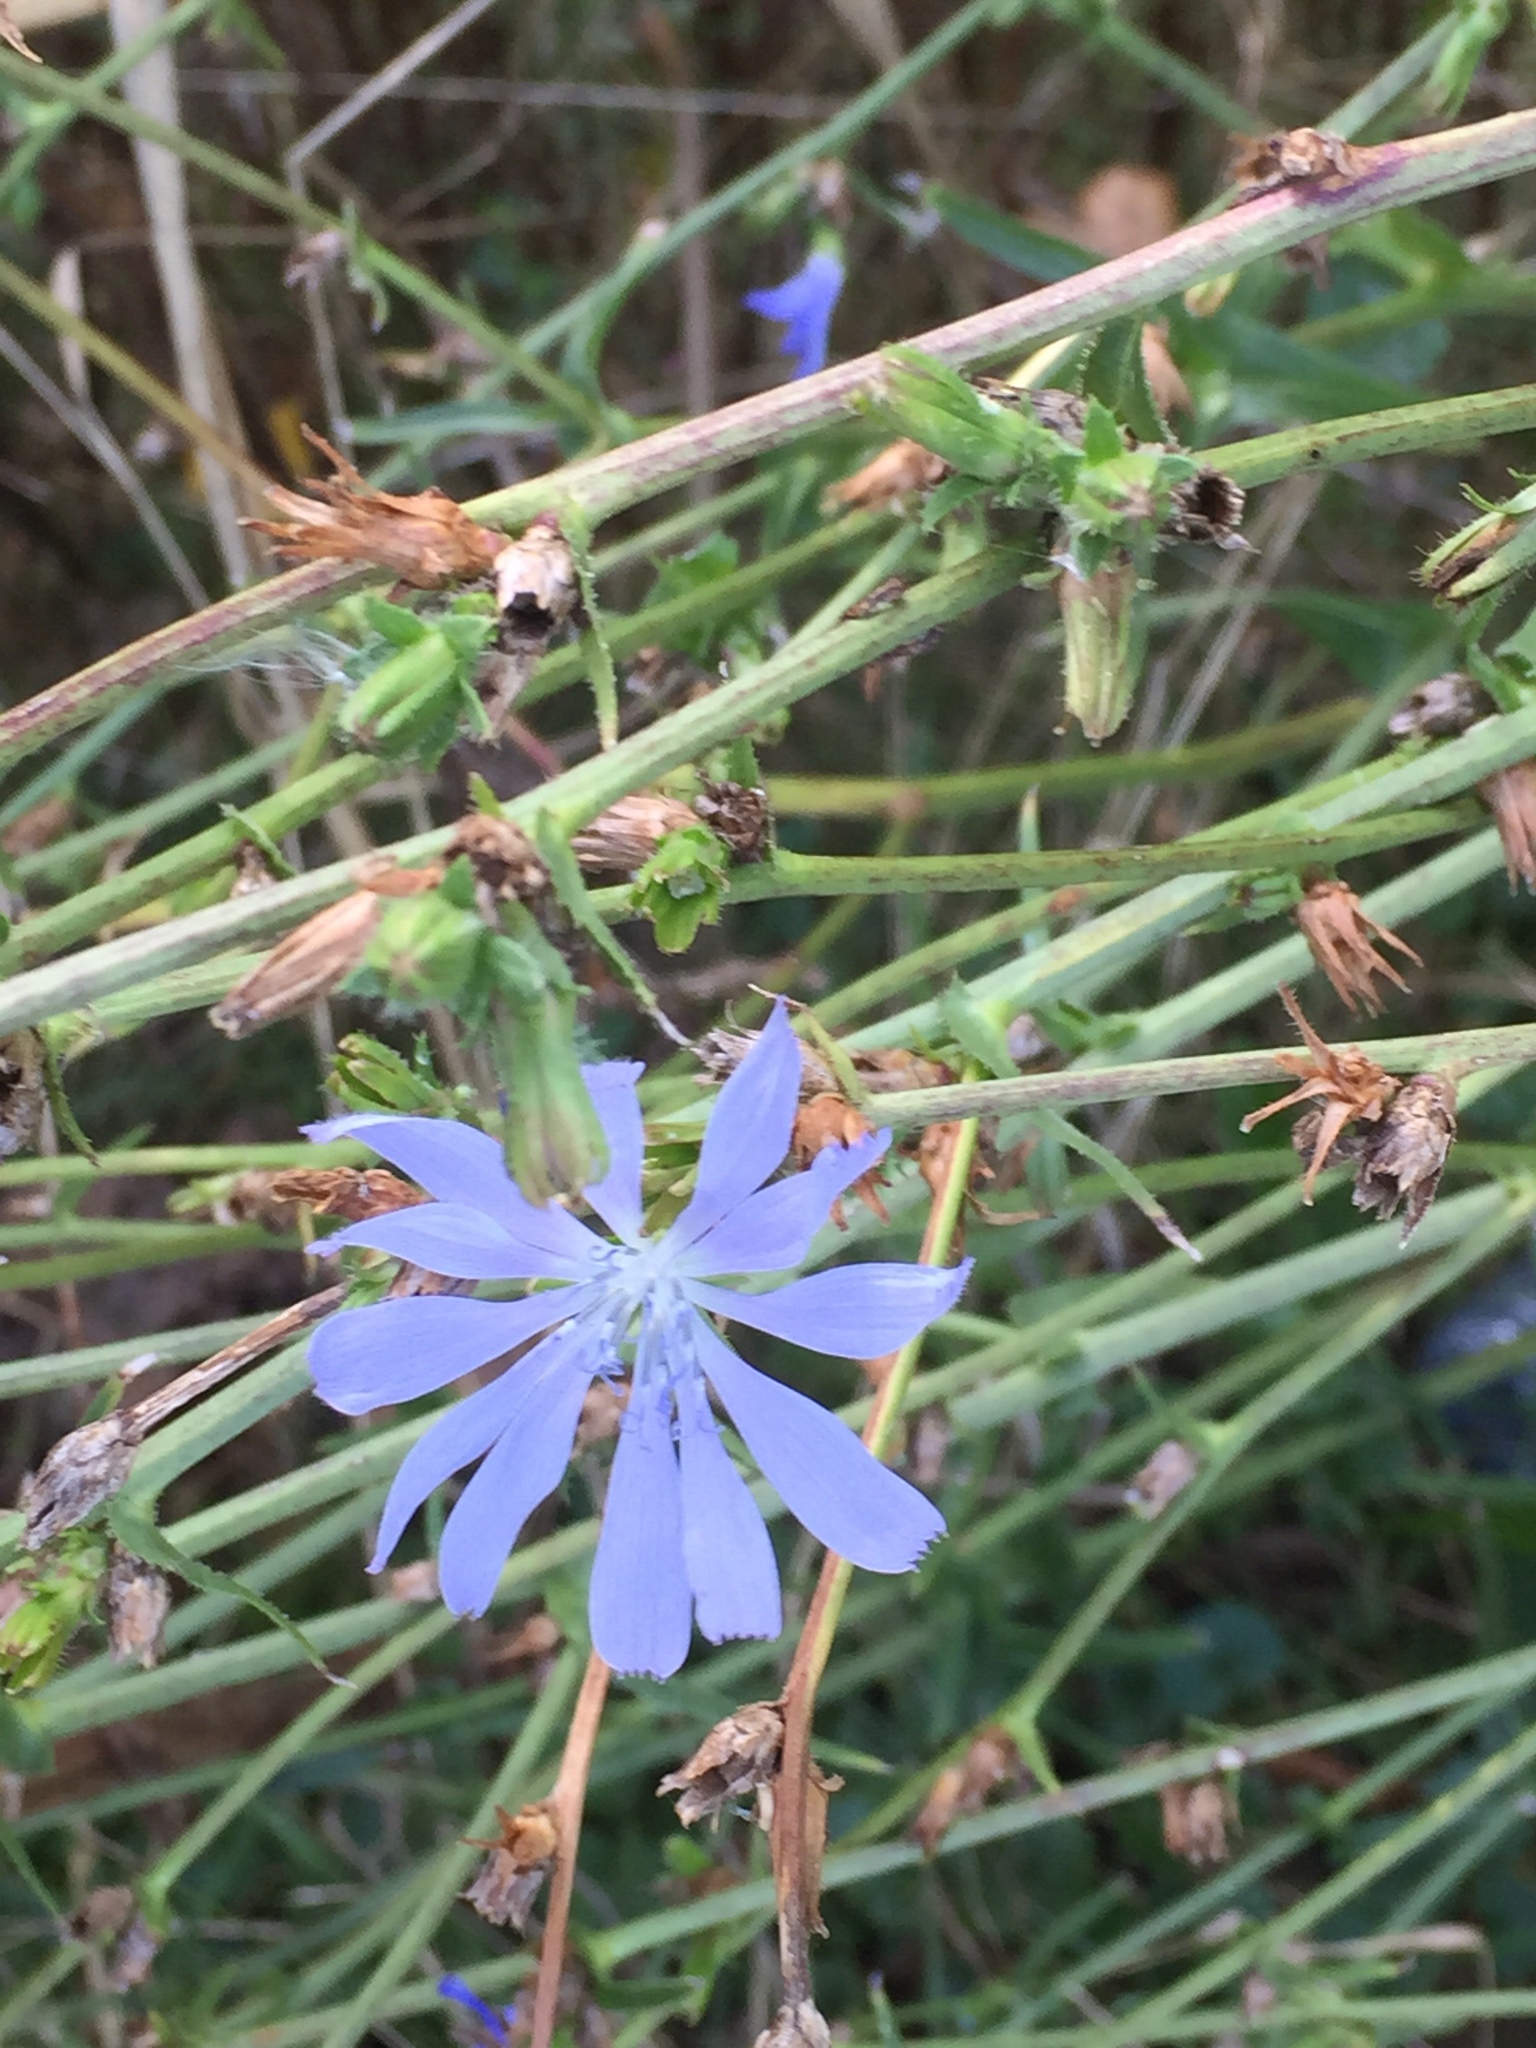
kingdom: Plantae
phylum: Tracheophyta
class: Magnoliopsida
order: Asterales
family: Asteraceae
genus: Cichorium
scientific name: Cichorium intybus
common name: Chicory
